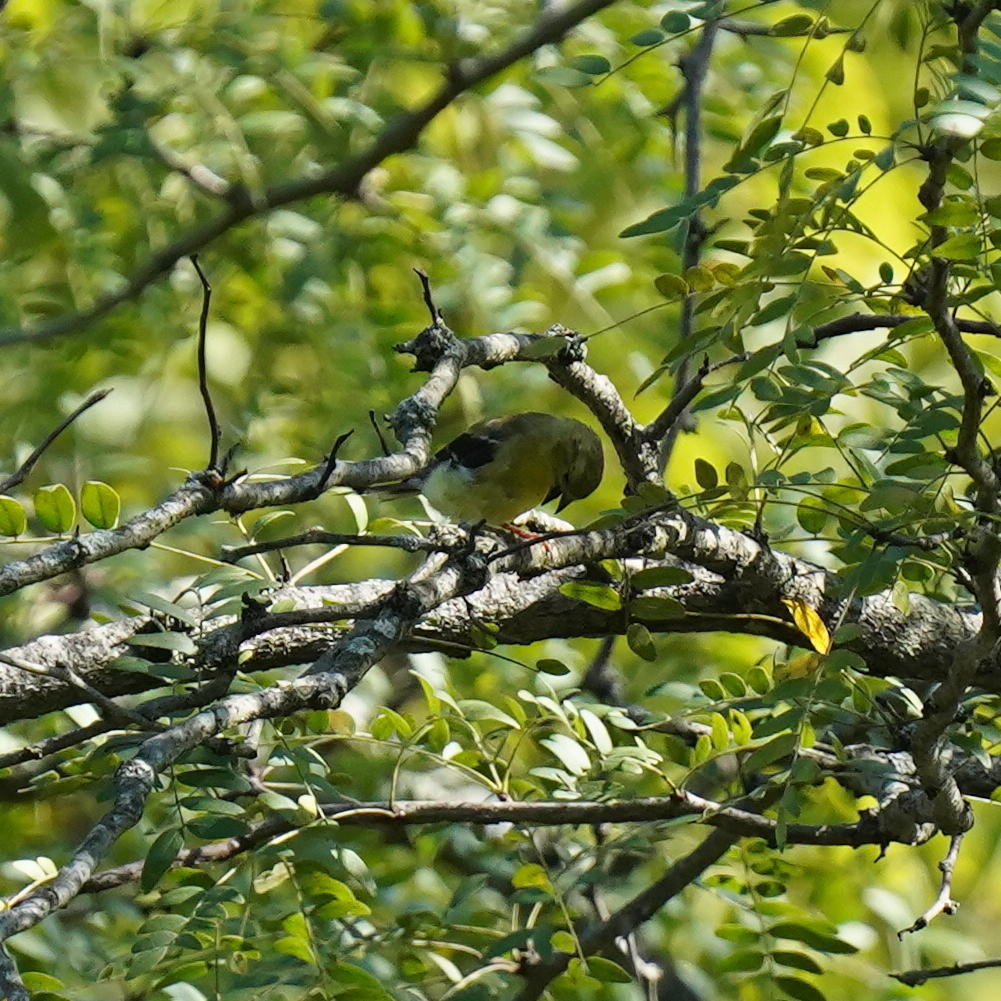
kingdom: Animalia
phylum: Chordata
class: Aves
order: Passeriformes
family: Fringillidae
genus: Spinus
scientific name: Spinus tristis
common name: American goldfinch
